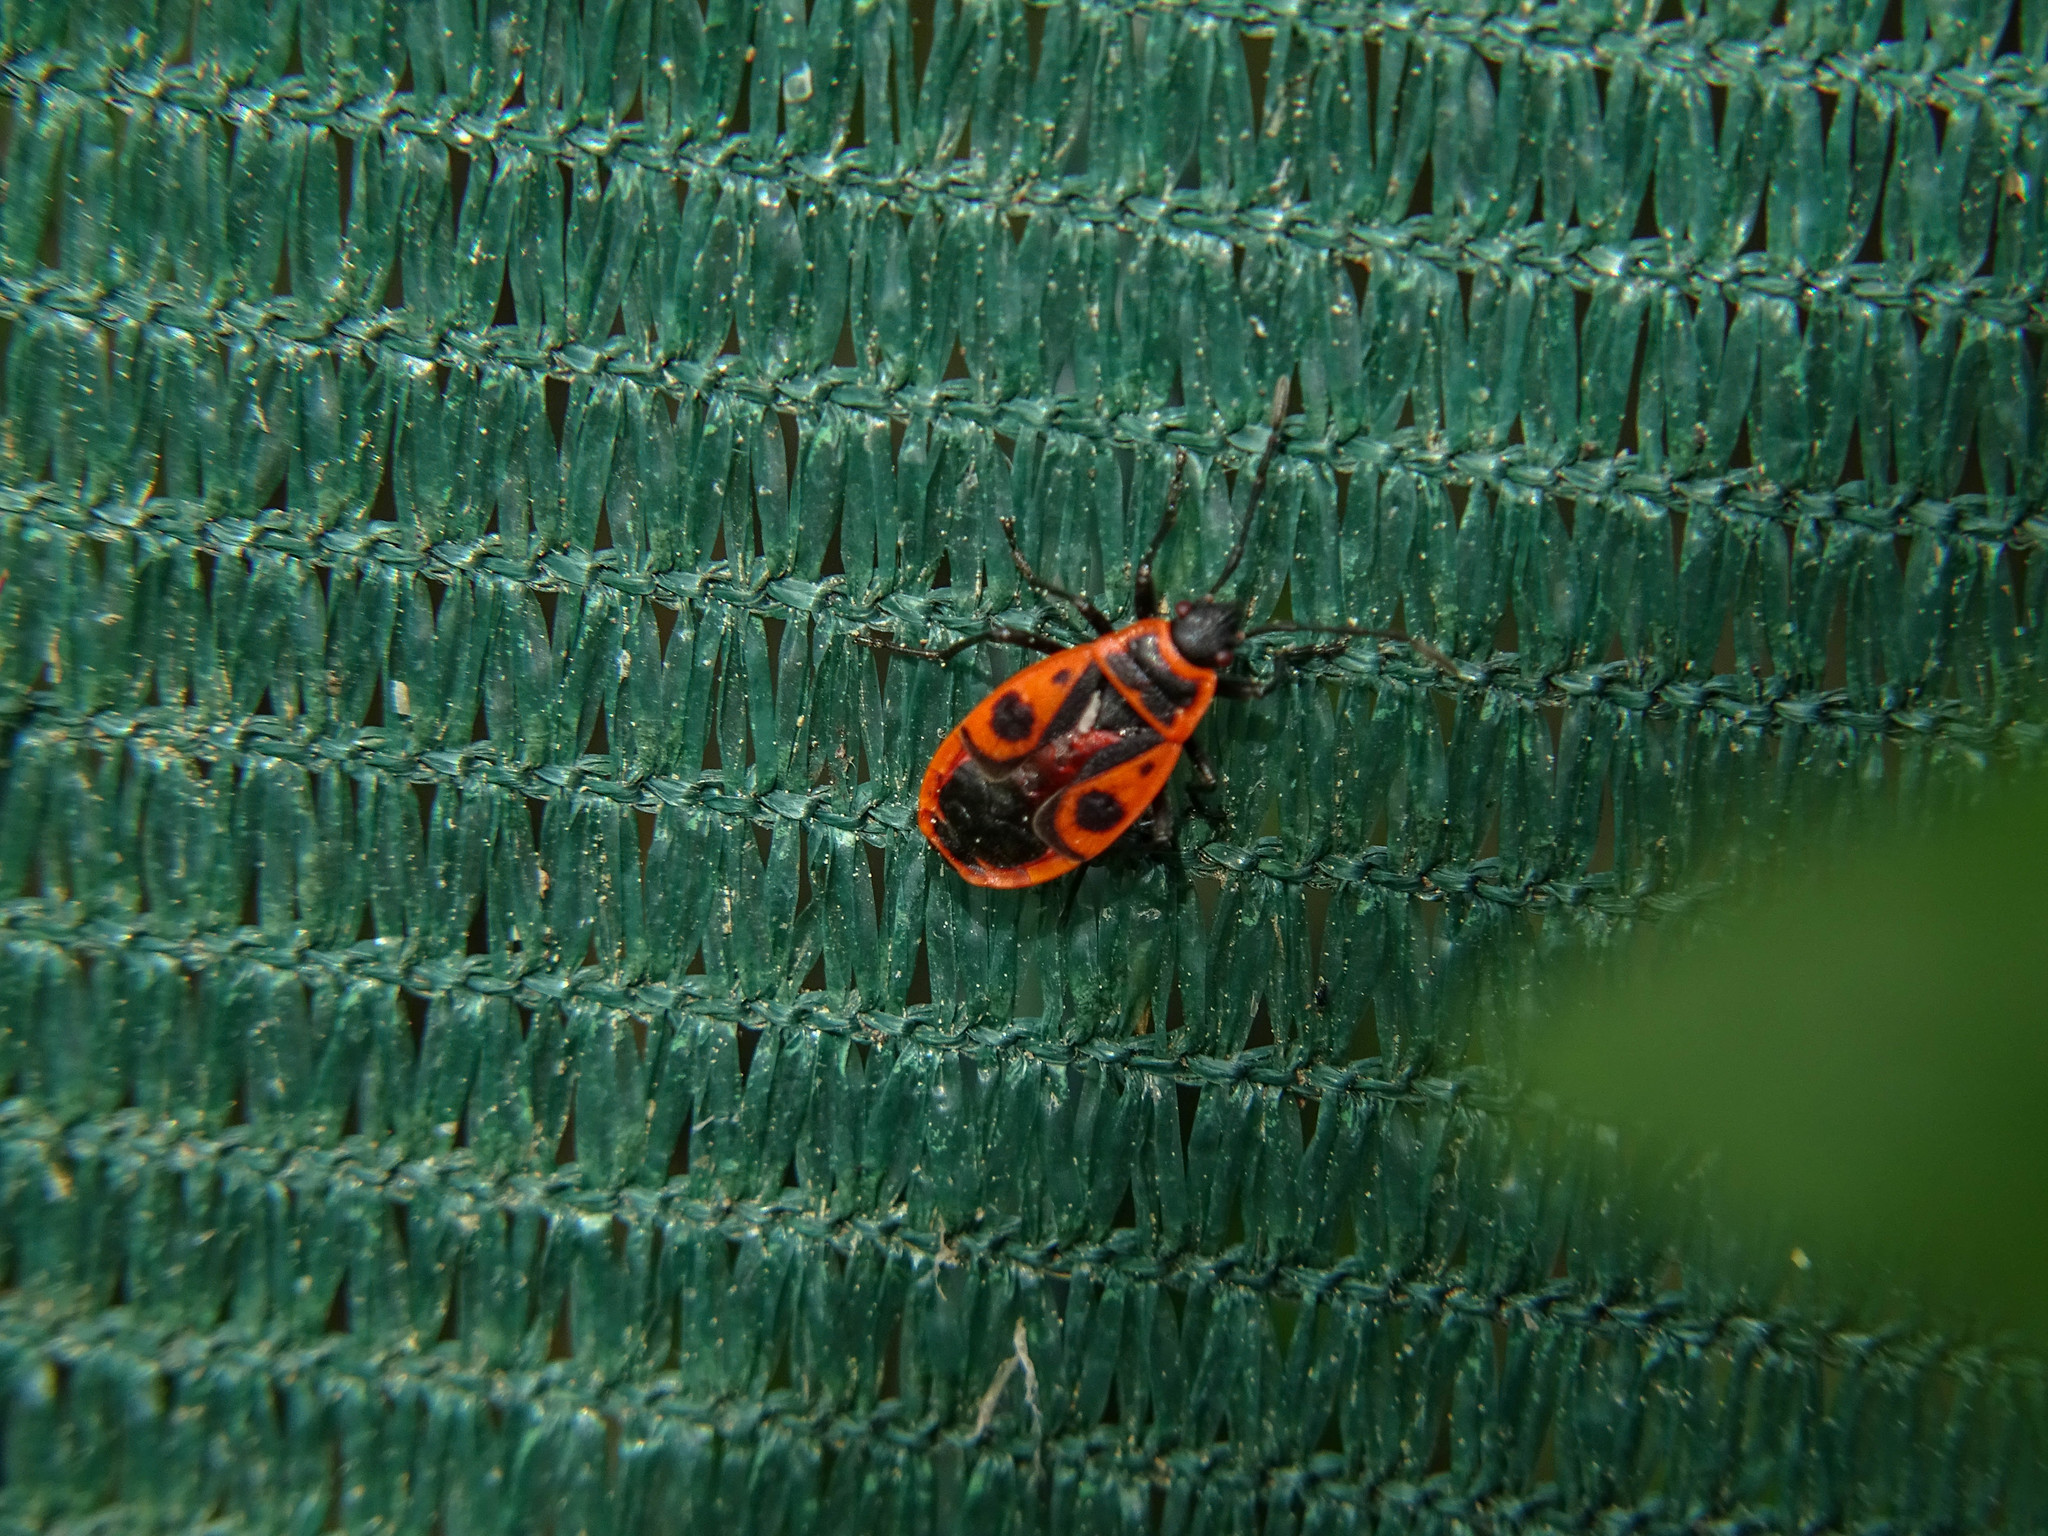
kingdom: Animalia
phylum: Arthropoda
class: Insecta
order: Hemiptera
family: Pyrrhocoridae
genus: Pyrrhocoris
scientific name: Pyrrhocoris apterus
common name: Firebug
